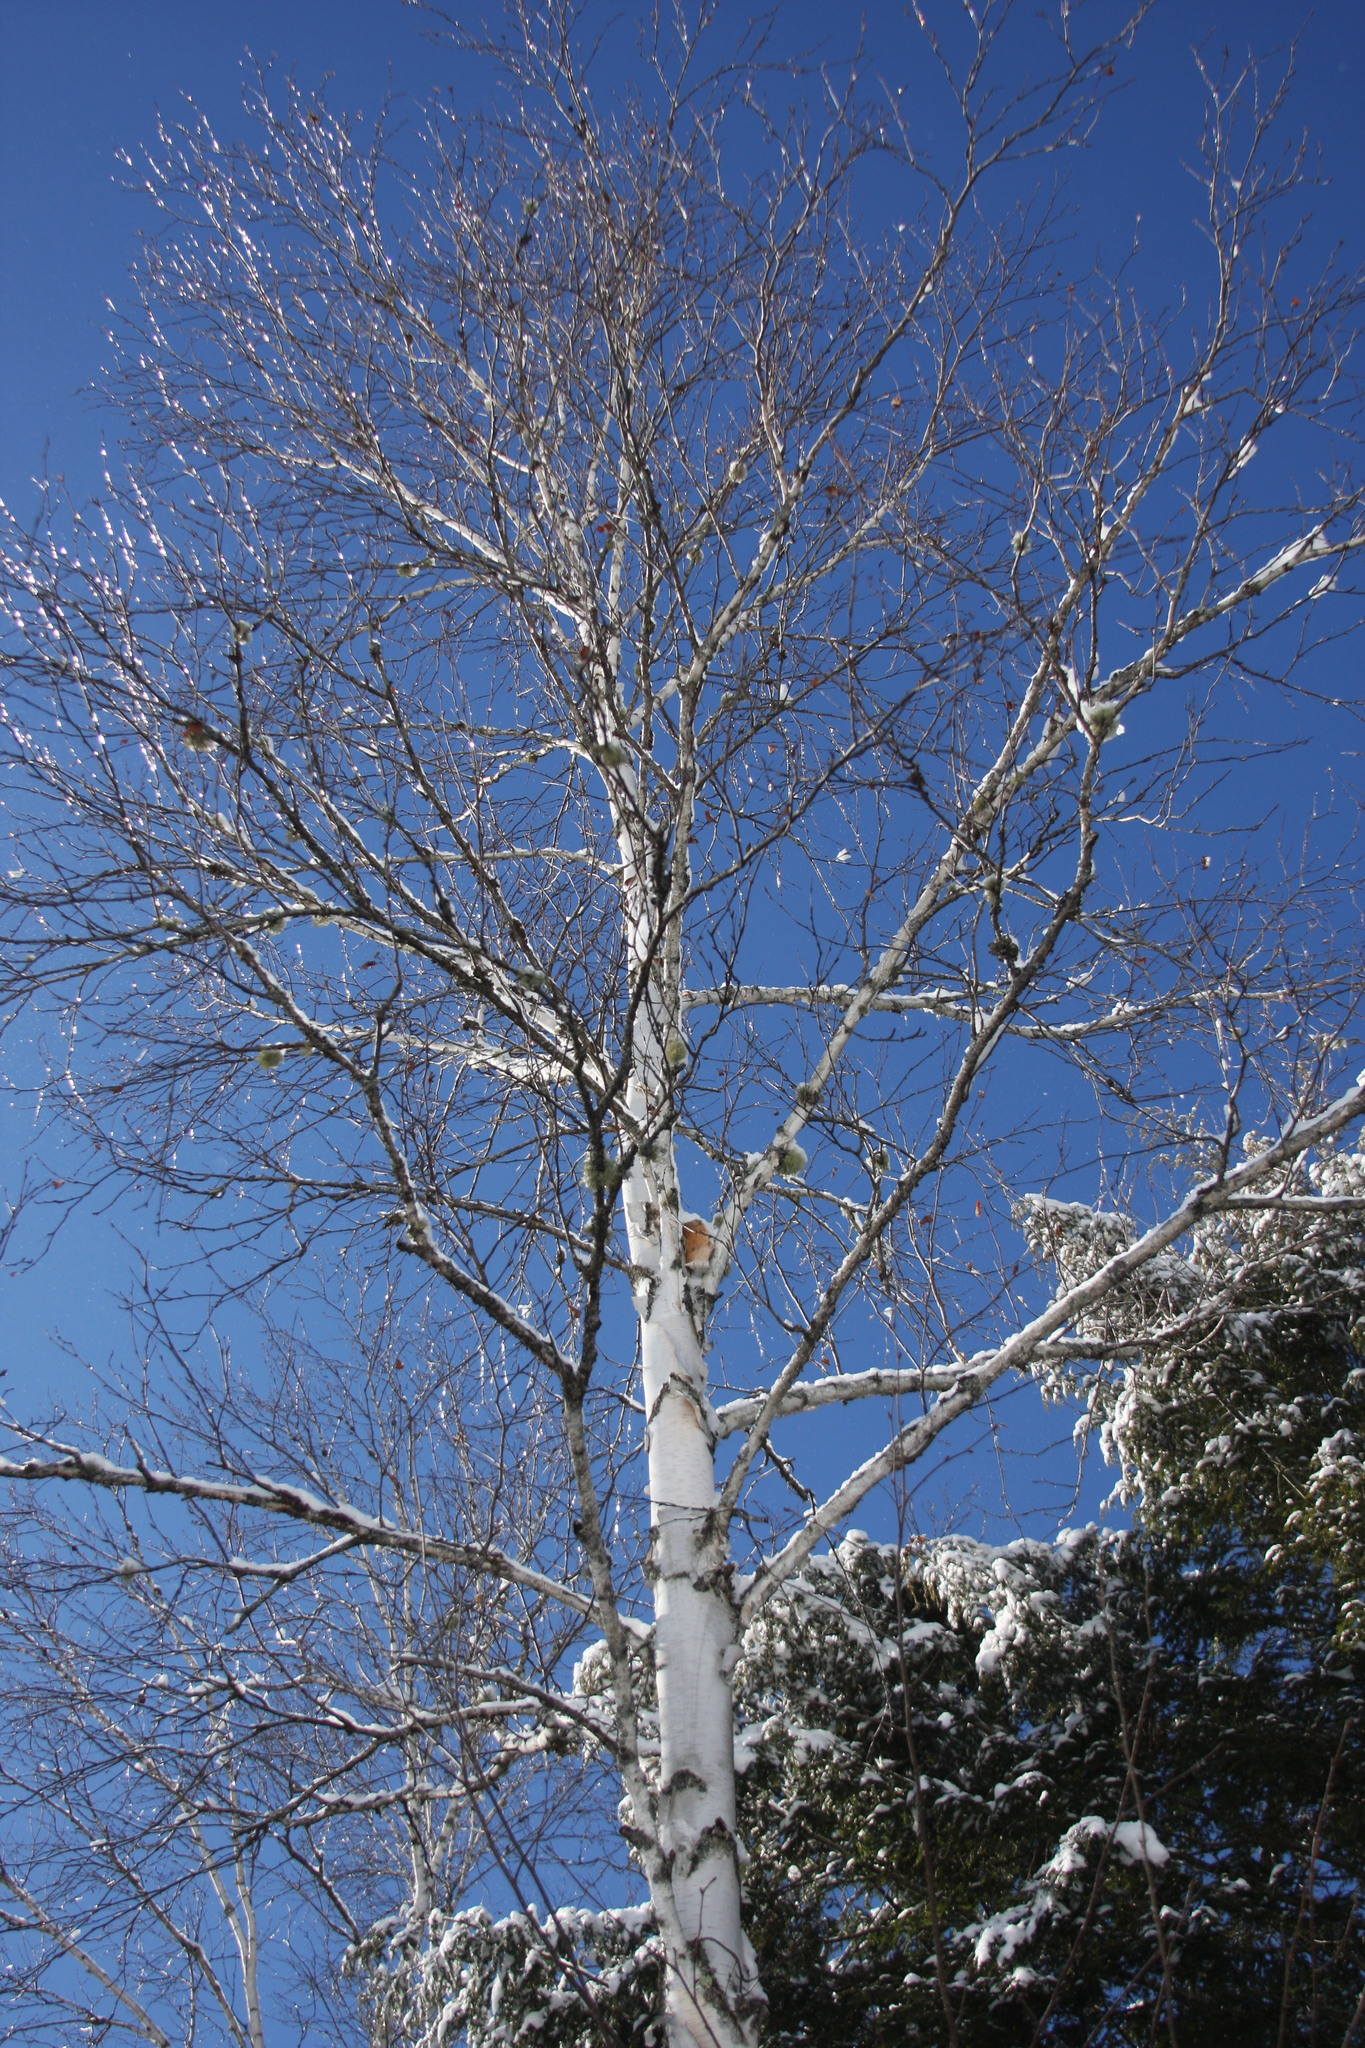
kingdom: Plantae
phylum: Tracheophyta
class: Magnoliopsida
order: Fagales
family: Betulaceae
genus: Betula
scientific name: Betula papyrifera
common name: Paper birch
